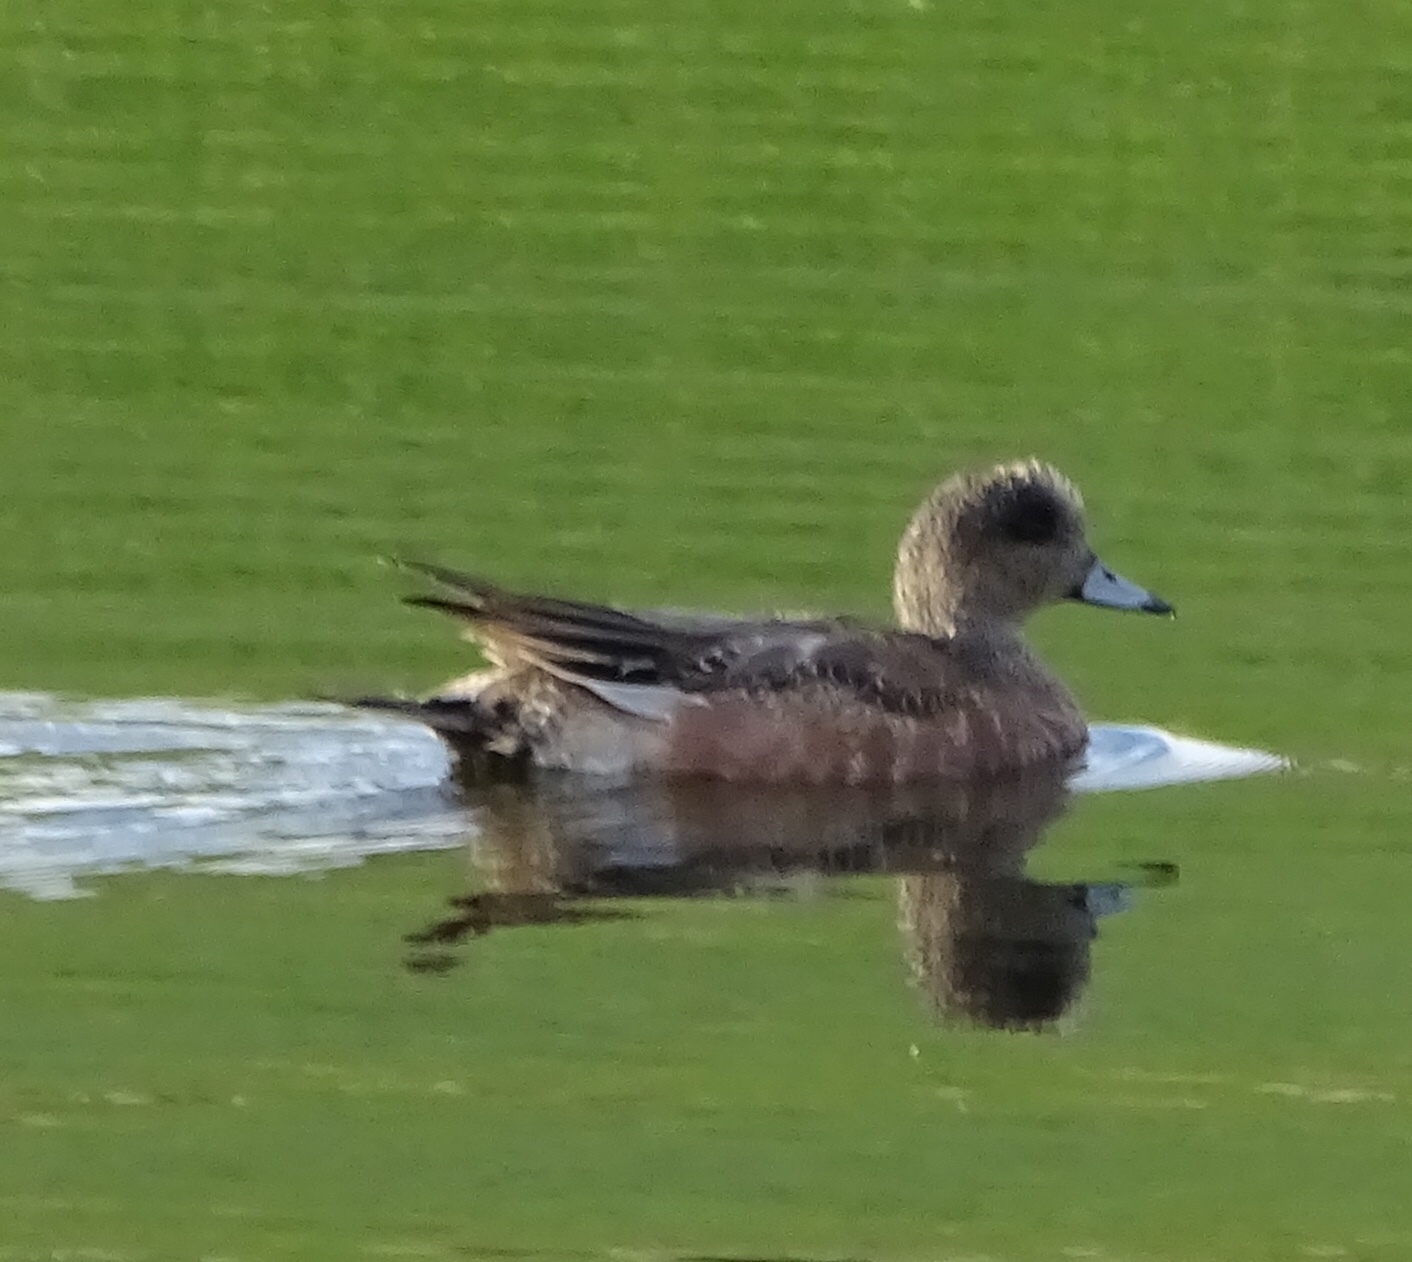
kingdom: Animalia
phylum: Chordata
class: Aves
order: Anseriformes
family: Anatidae
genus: Mareca
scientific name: Mareca americana
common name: American wigeon
